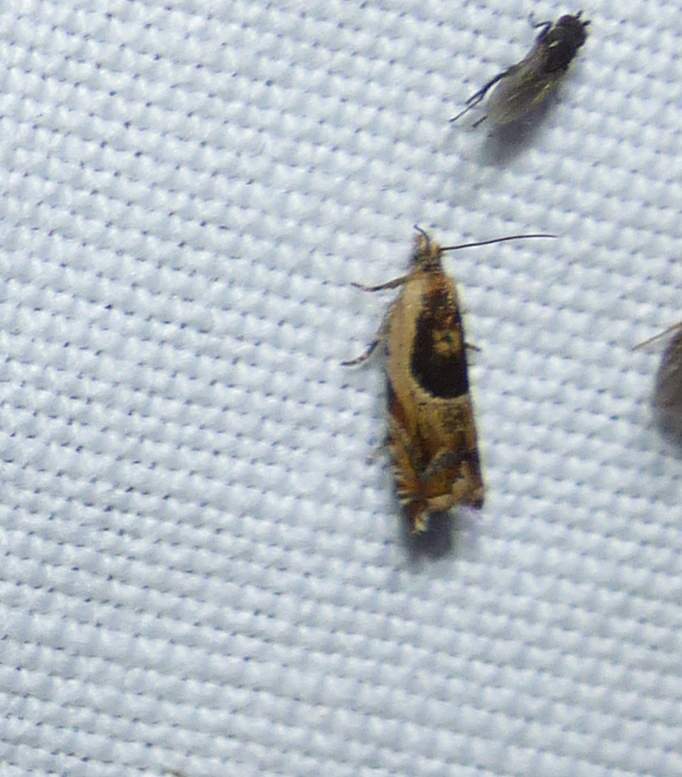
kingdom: Animalia
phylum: Arthropoda
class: Insecta
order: Lepidoptera
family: Tortricidae
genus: Ancylis
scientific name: Ancylis metamelana
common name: Black-marked ancylis moth
